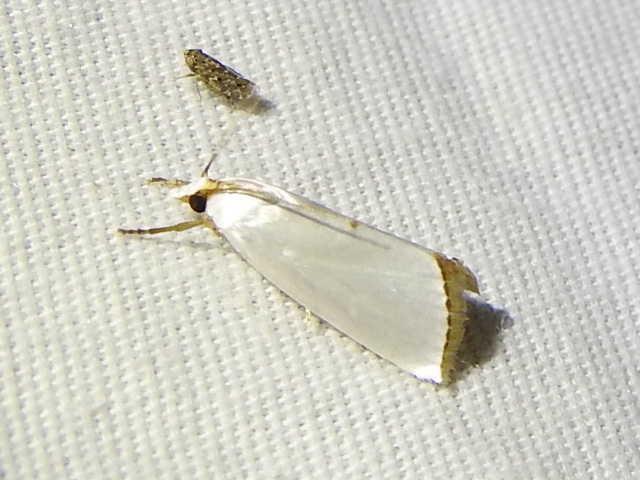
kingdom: Animalia
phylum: Arthropoda
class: Insecta
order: Lepidoptera
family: Crambidae
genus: Argyria
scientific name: Argyria nivalis
